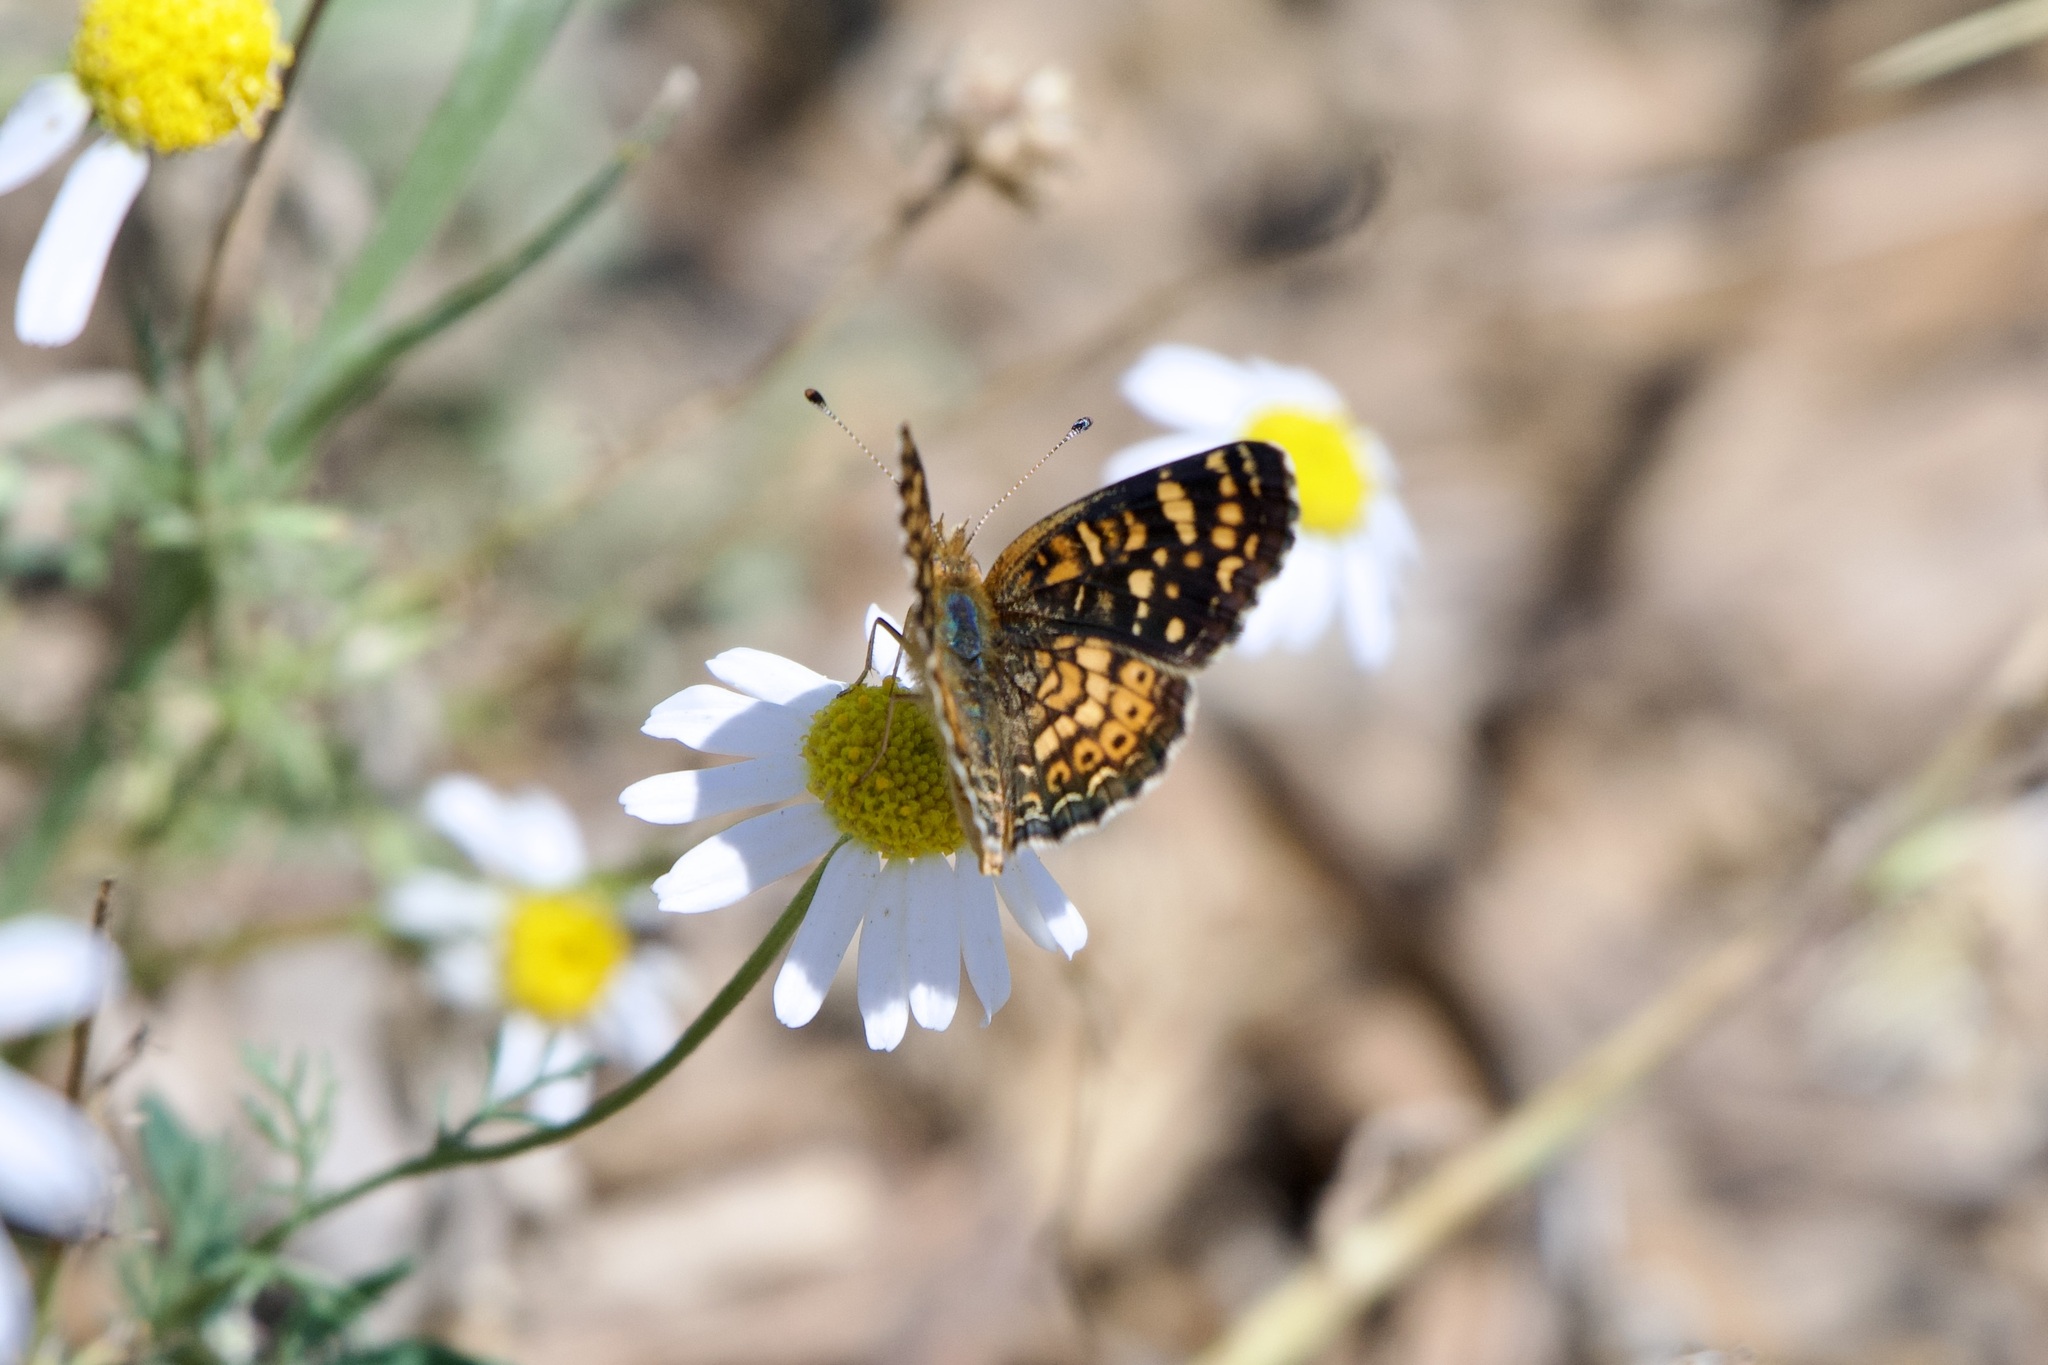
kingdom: Animalia
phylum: Arthropoda
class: Insecta
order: Lepidoptera
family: Nymphalidae
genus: Phyciodes
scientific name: Phyciodes tharos
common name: Pearl crescent
